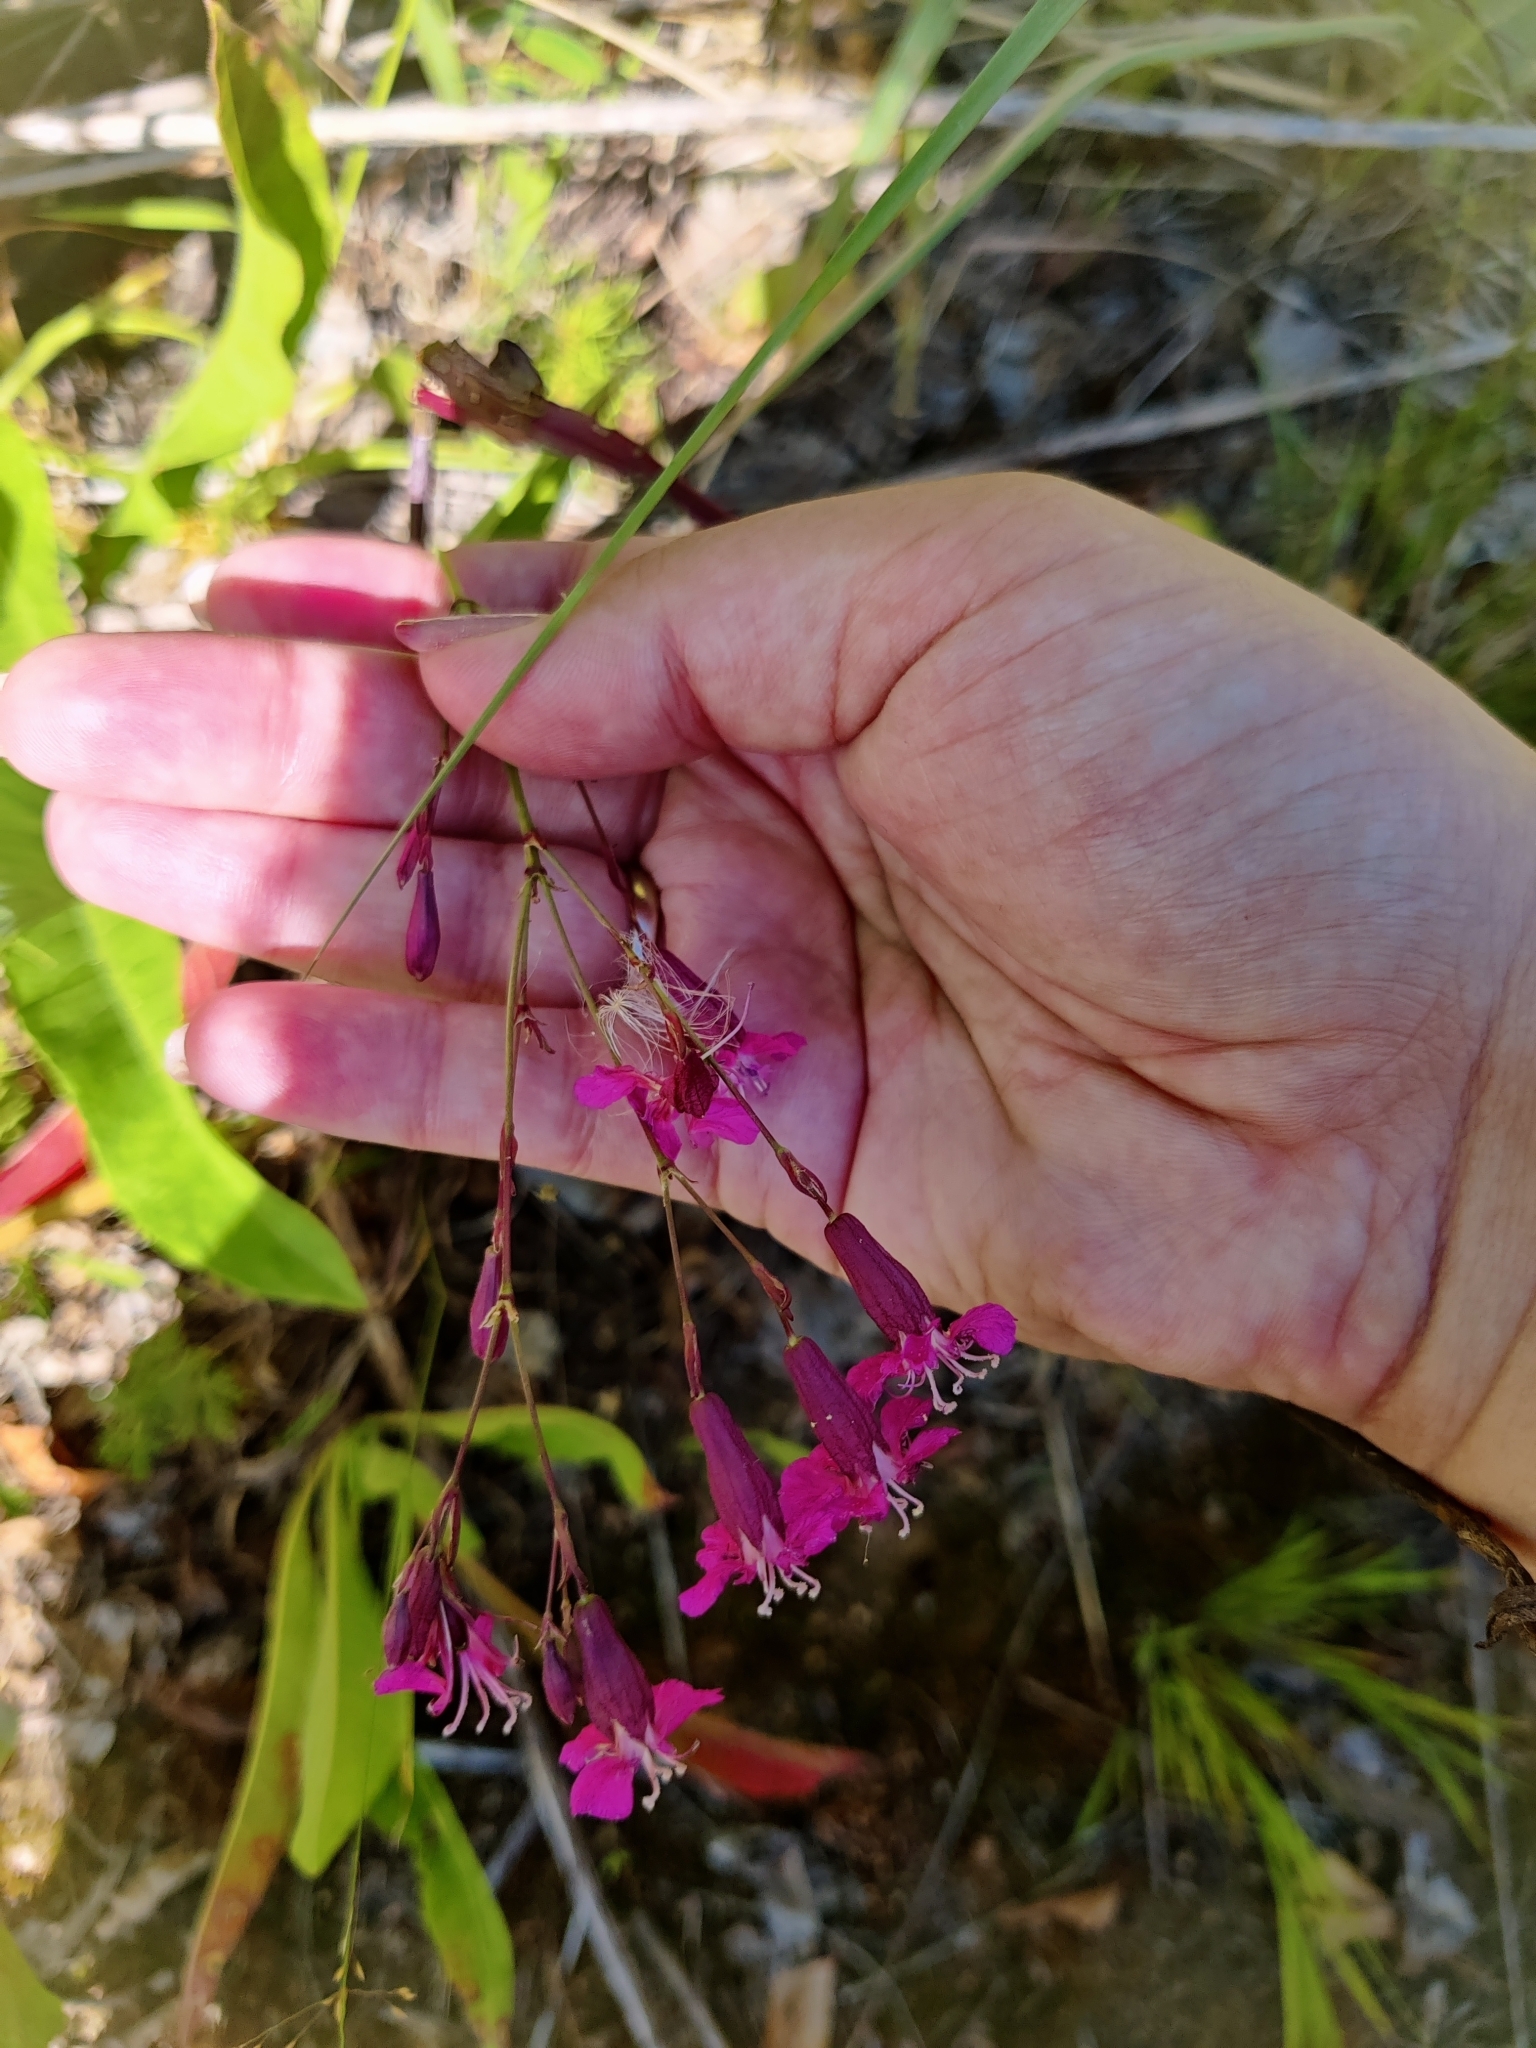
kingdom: Plantae
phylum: Tracheophyta
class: Magnoliopsida
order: Caryophyllales
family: Caryophyllaceae
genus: Viscaria
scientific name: Viscaria vulgaris
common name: Clammy campion
